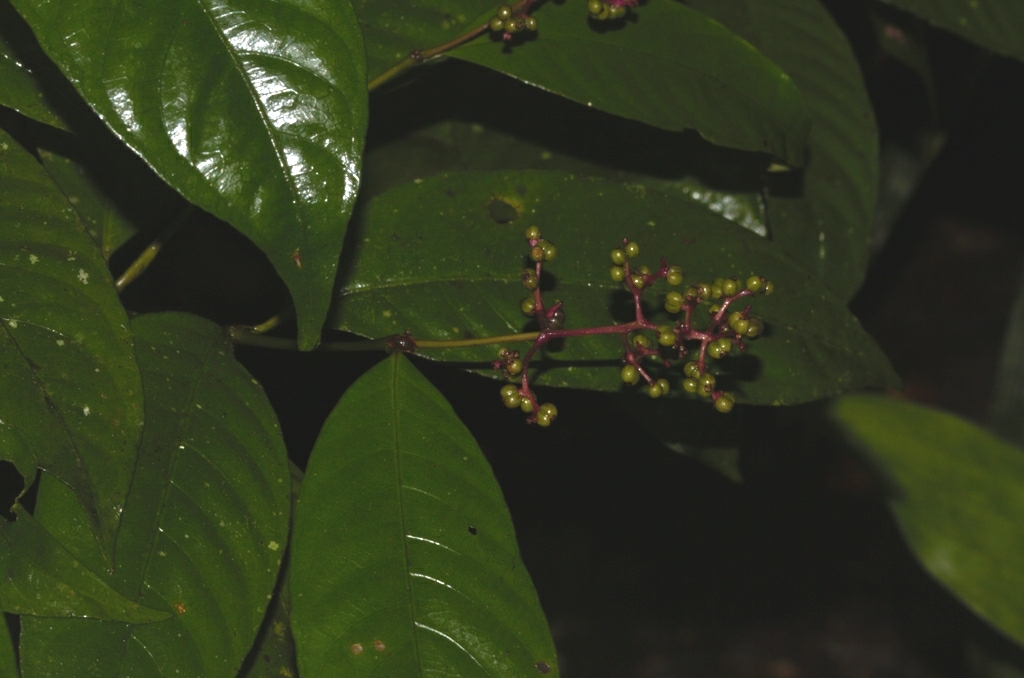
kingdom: Plantae
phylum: Tracheophyta
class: Magnoliopsida
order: Gentianales
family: Rubiaceae
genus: Palicourea
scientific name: Palicourea microbotrys
